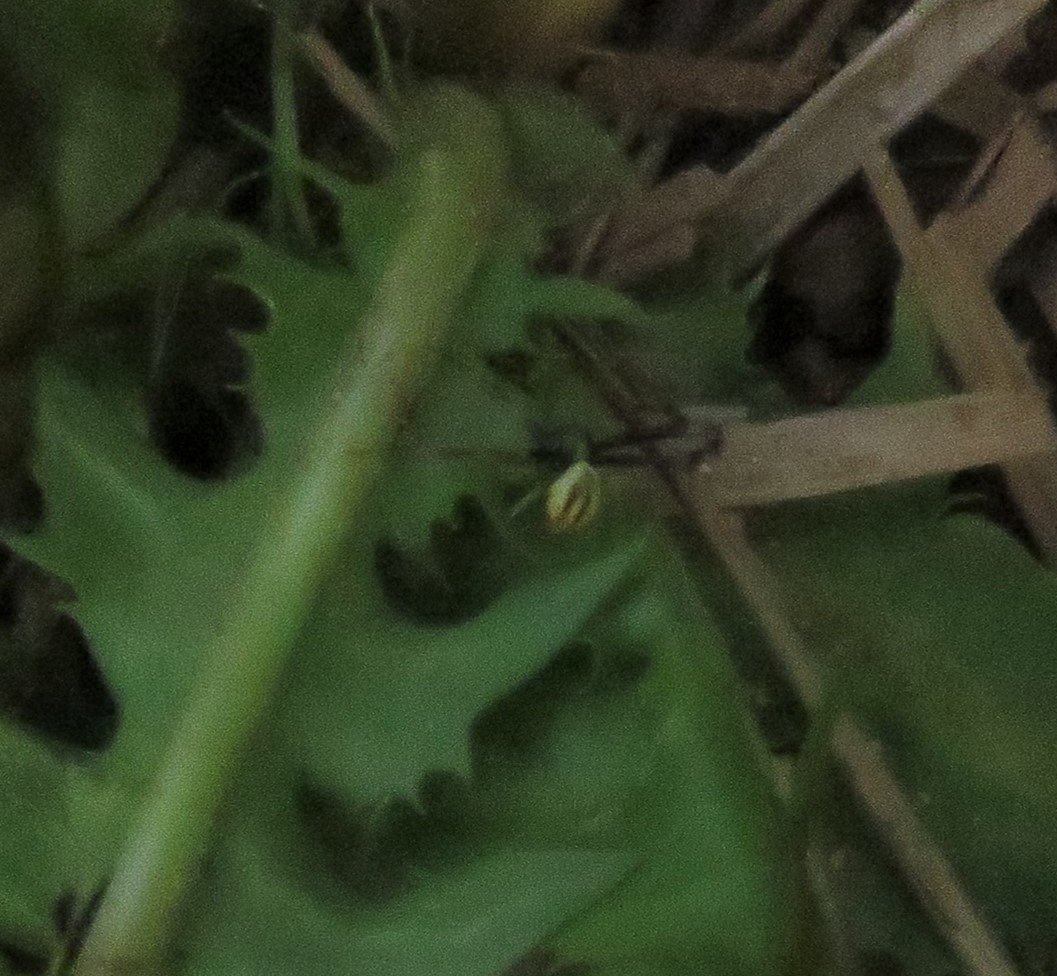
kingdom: Animalia
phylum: Arthropoda
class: Arachnida
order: Araneae
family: Thomisidae
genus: Misumena
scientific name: Misumena vatia
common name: Goldenrod crab spider
